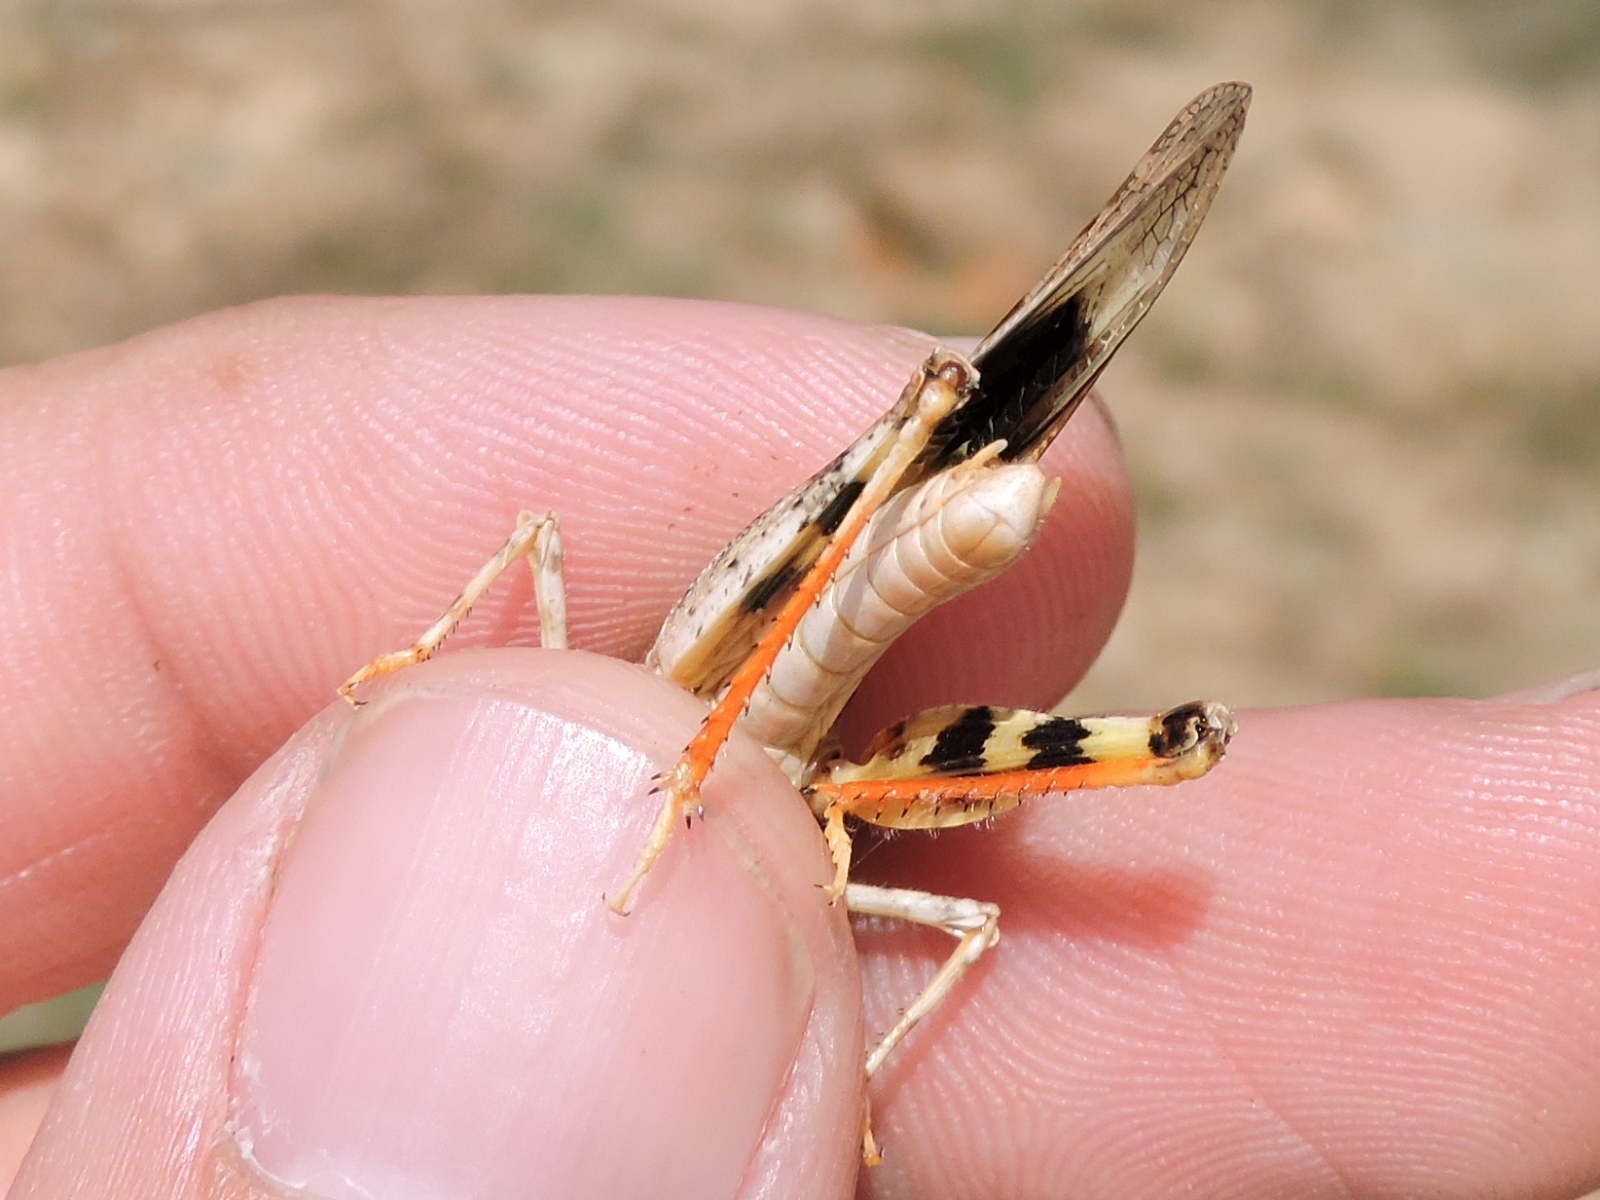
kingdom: Animalia
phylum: Arthropoda
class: Insecta
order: Orthoptera
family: Acrididae
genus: Trimerotropis
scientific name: Trimerotropis maritima
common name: Seaside locust
